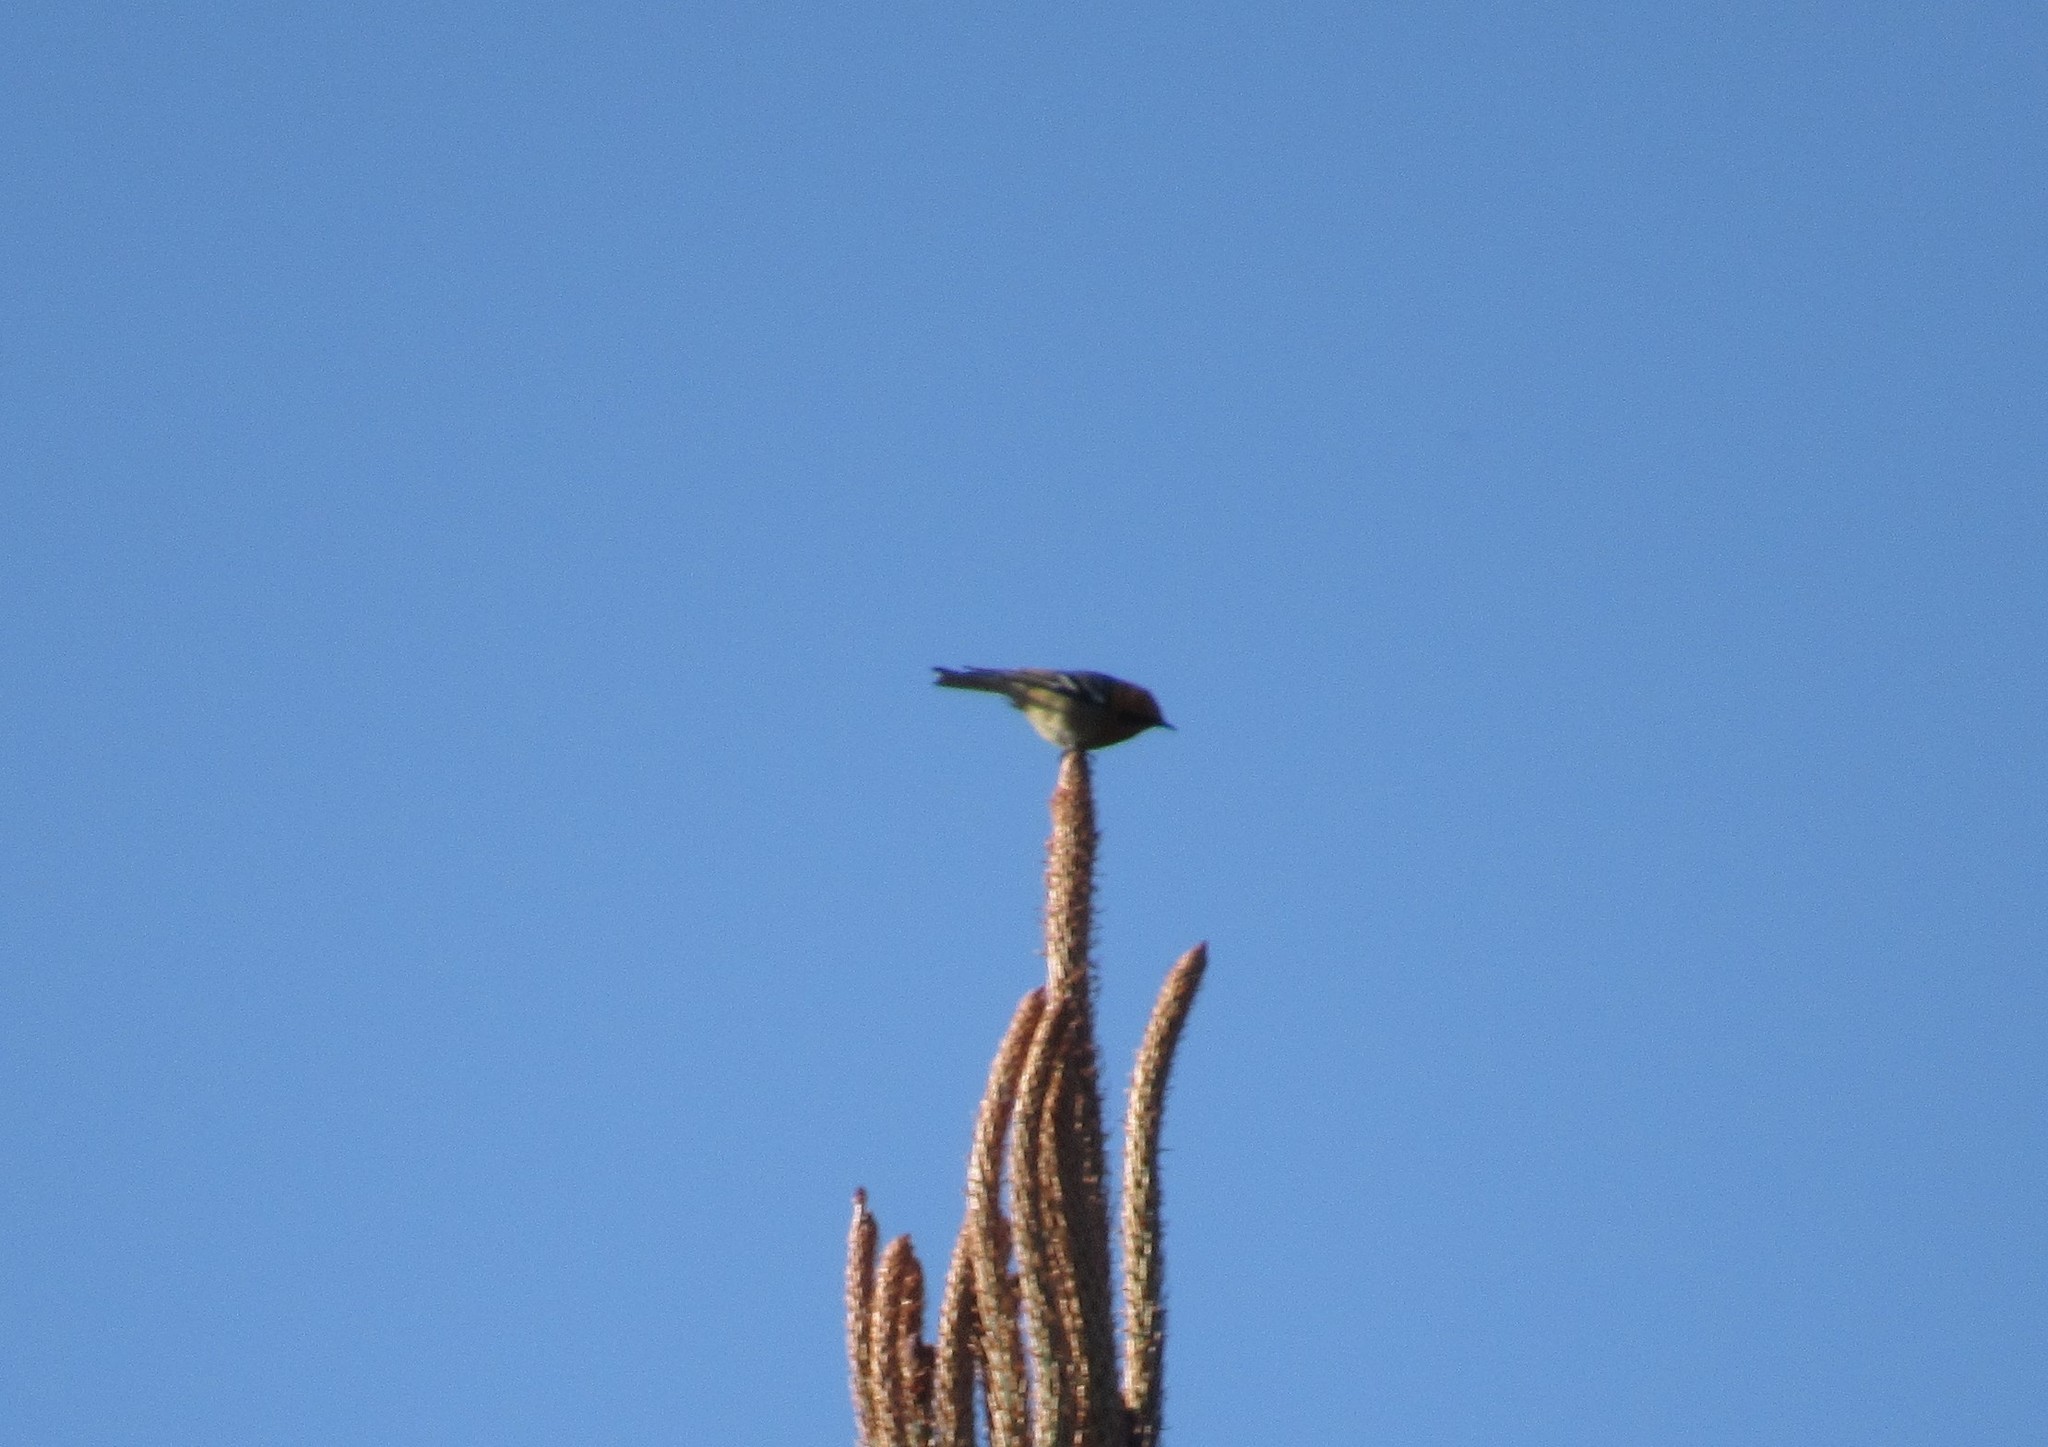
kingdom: Animalia
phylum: Chordata
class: Aves
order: Passeriformes
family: Peucedramidae
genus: Peucedramus
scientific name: Peucedramus taeniatus
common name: Olive warbler
